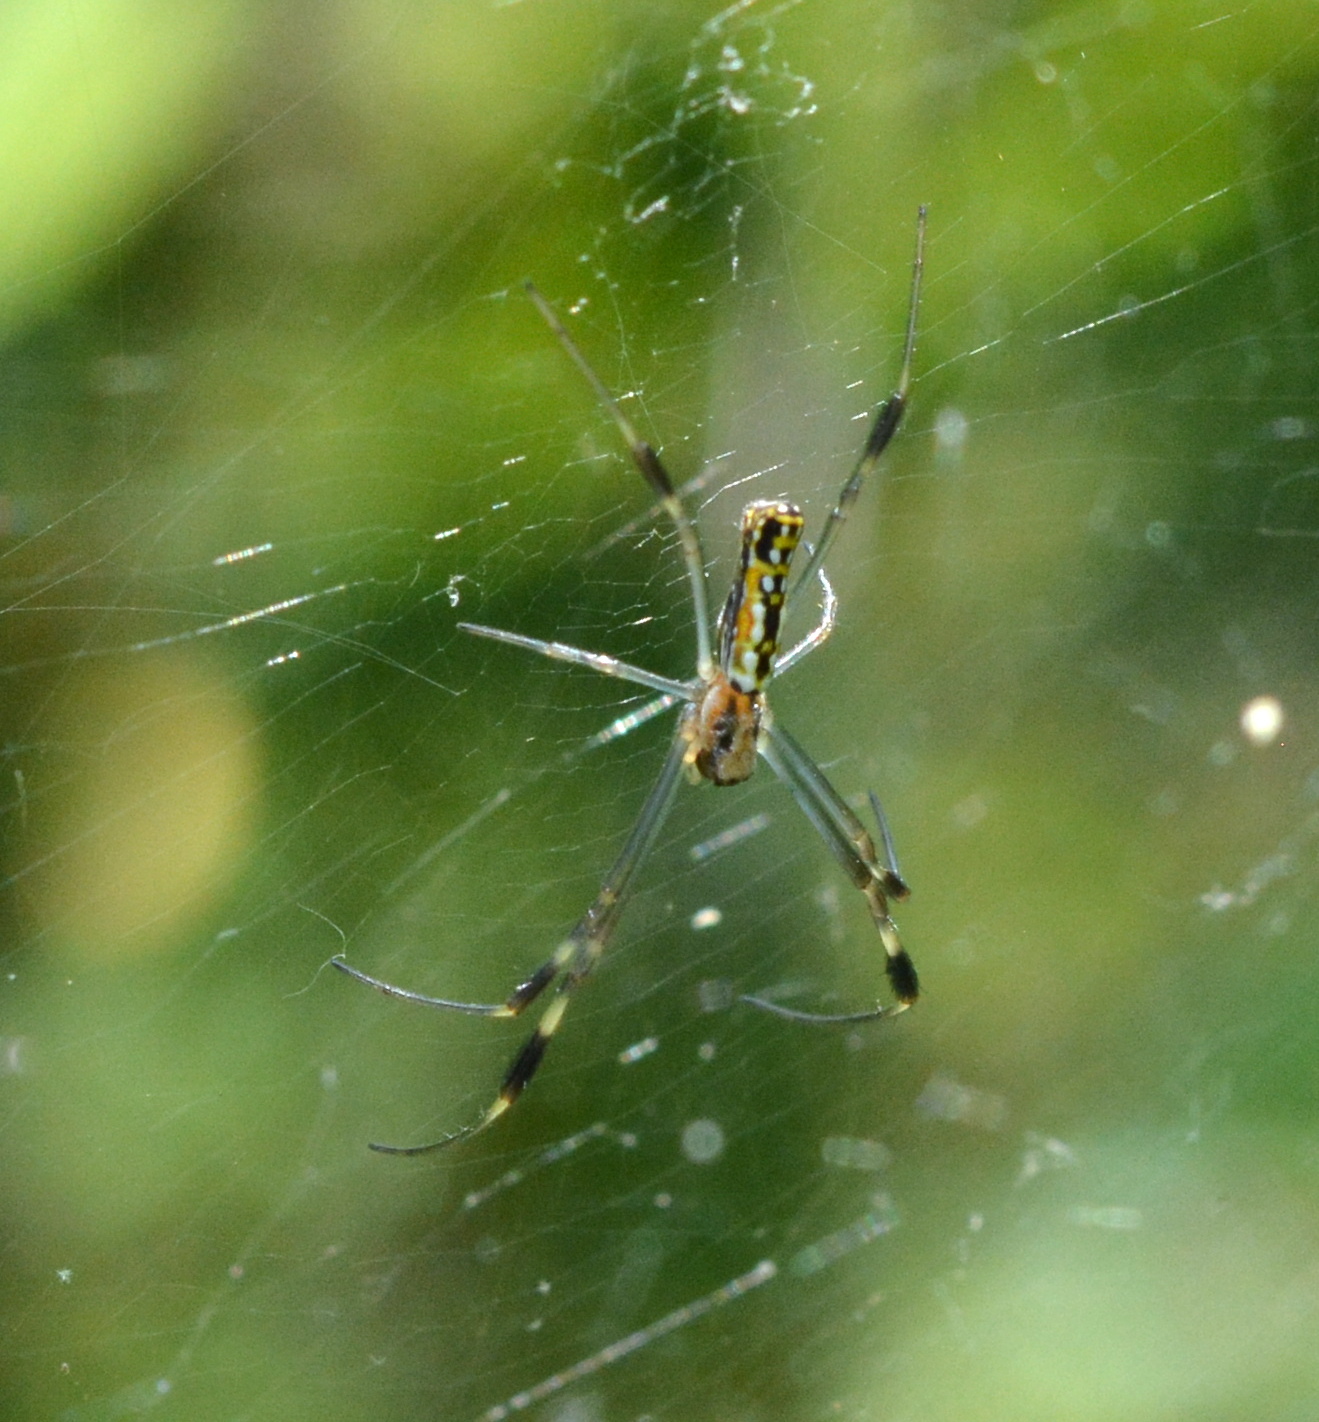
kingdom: Animalia
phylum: Arthropoda
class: Arachnida
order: Araneae
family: Araneidae
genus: Trichonephila
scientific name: Trichonephila clavipes
